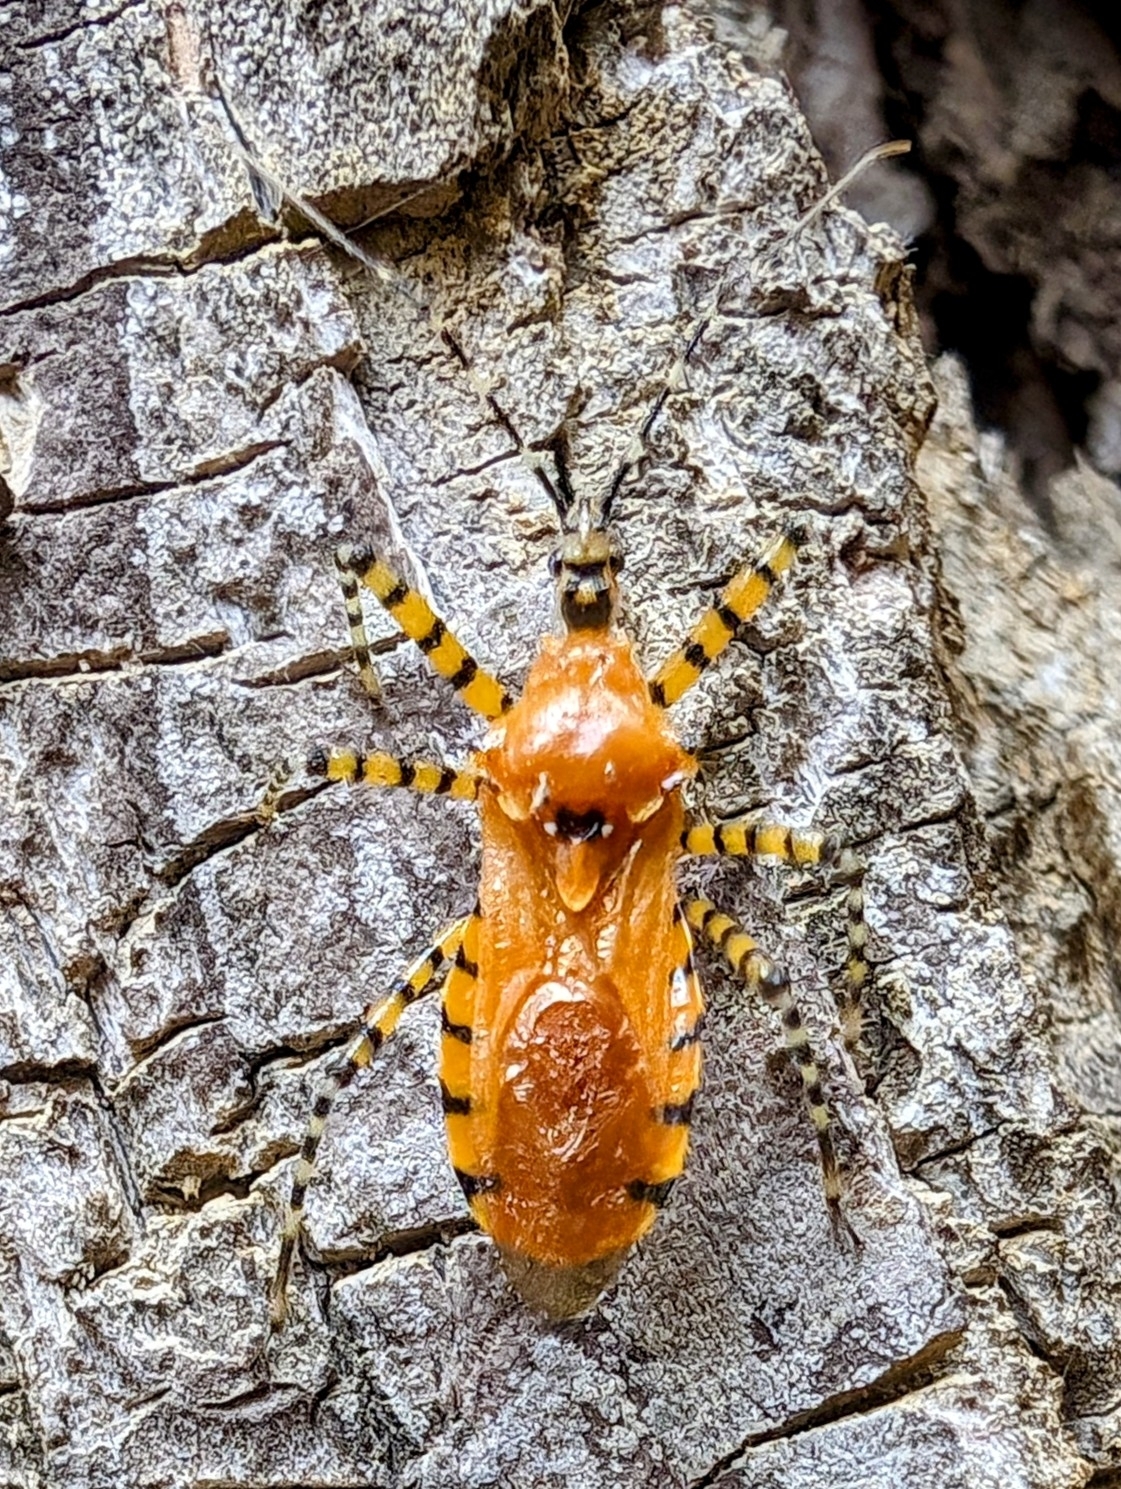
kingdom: Animalia
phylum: Arthropoda
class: Insecta
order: Hemiptera
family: Reduviidae
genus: Pselliopus
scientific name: Pselliopus barberi
